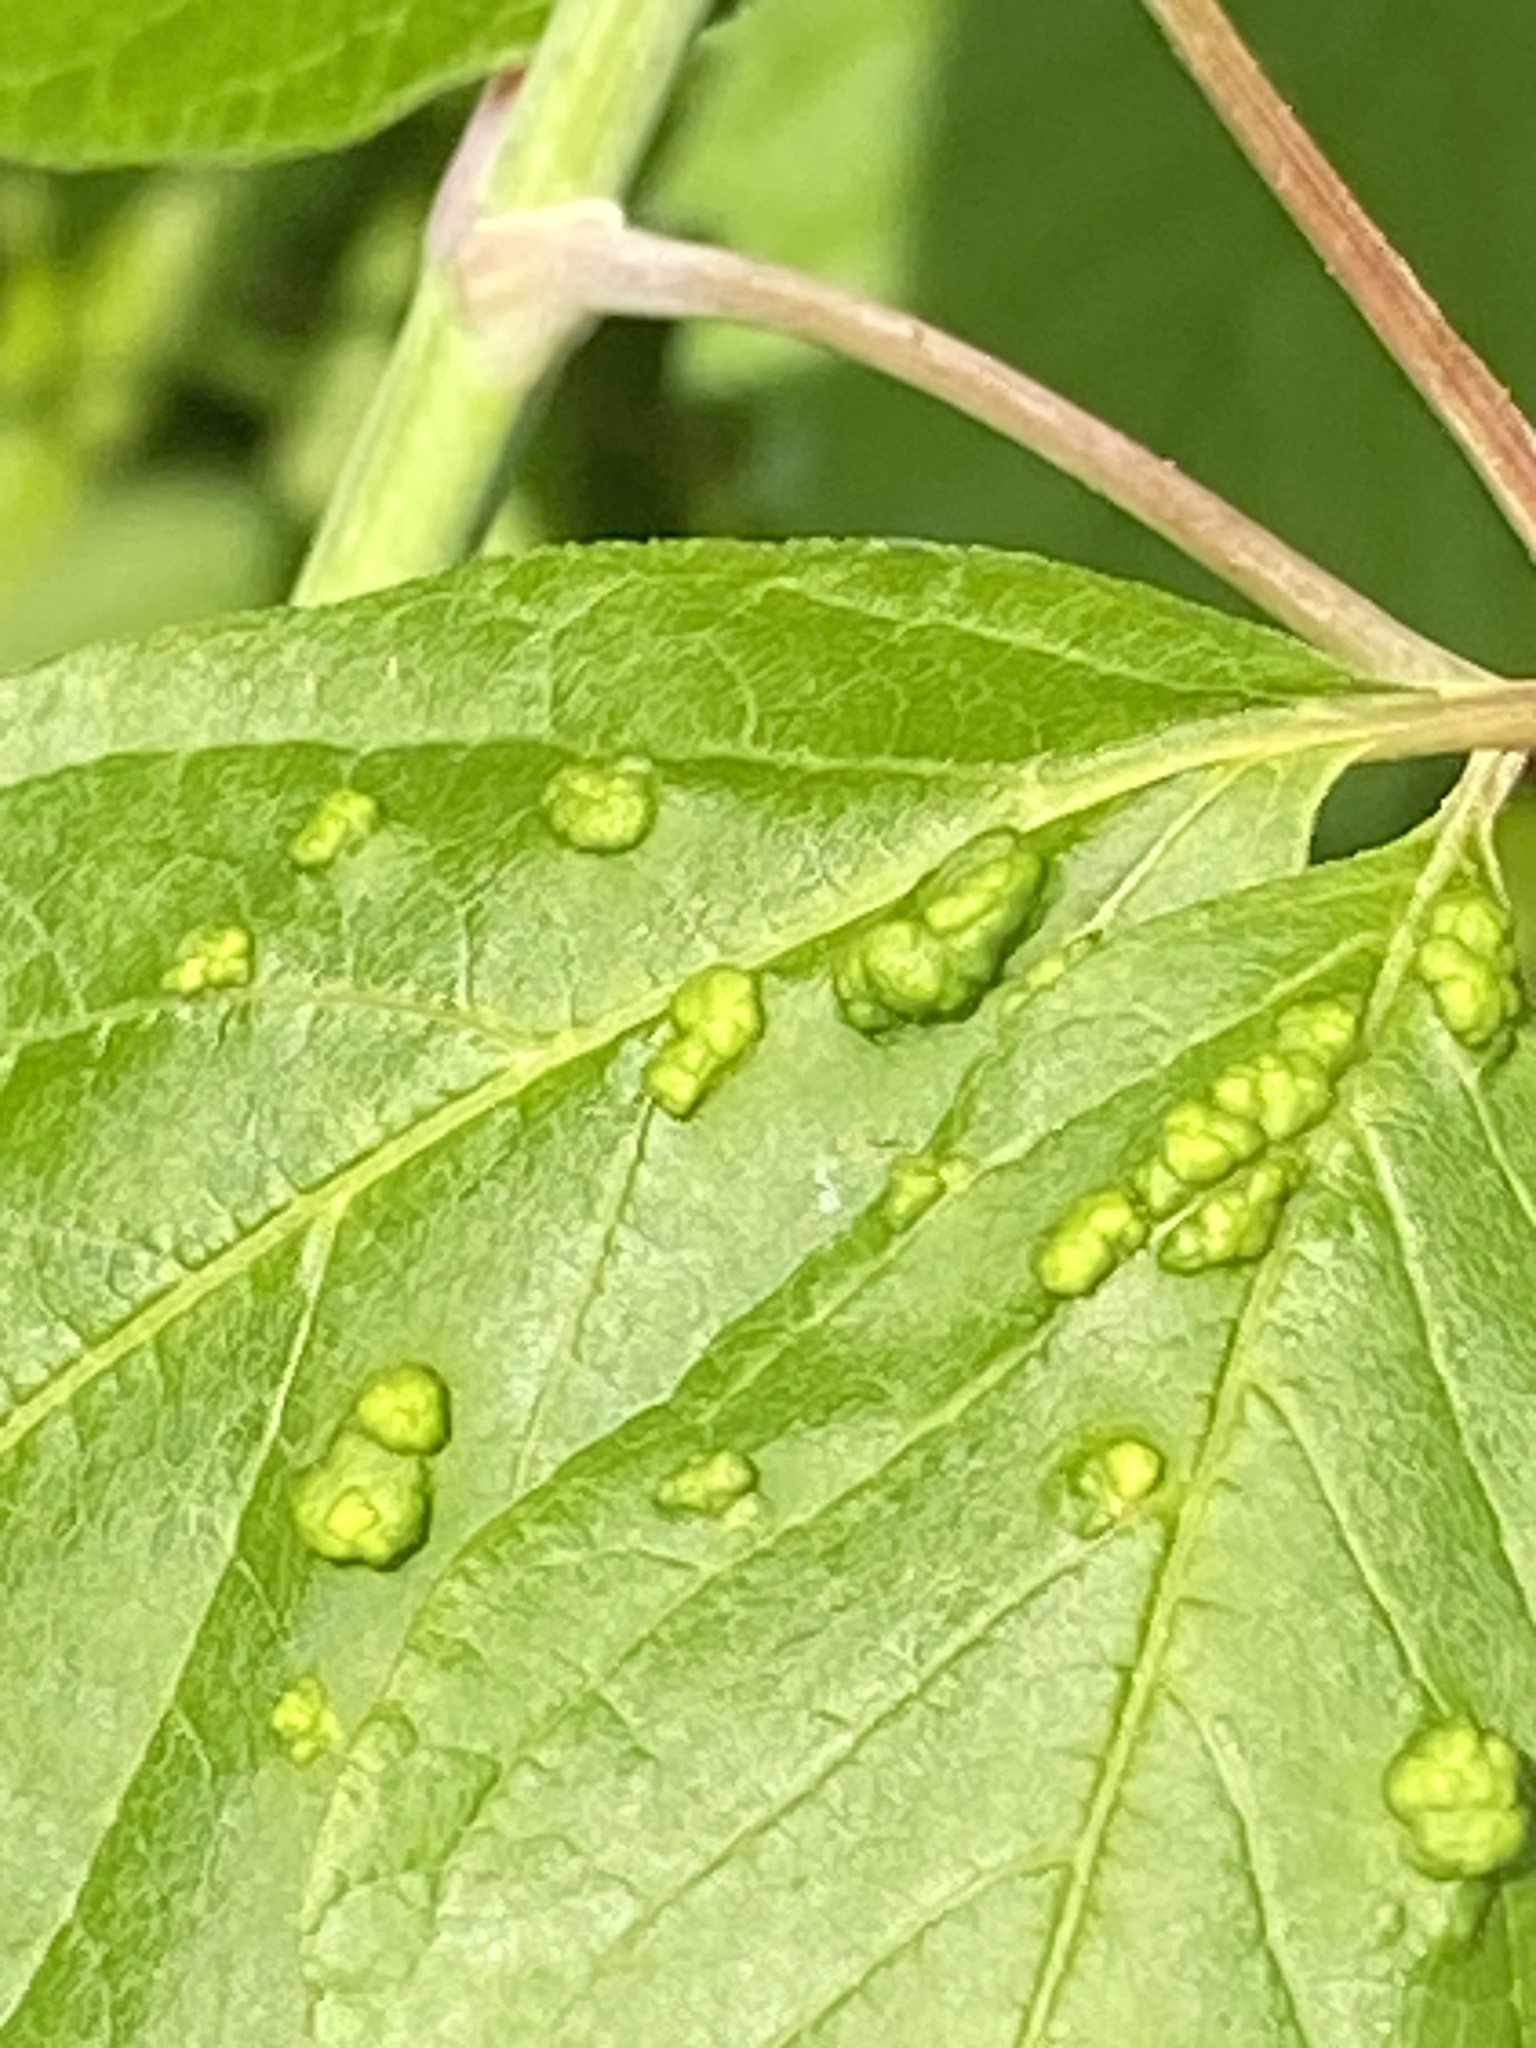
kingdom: Animalia
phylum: Arthropoda
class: Arachnida
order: Trombidiformes
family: Eriophyidae
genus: Aceria
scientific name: Aceria
